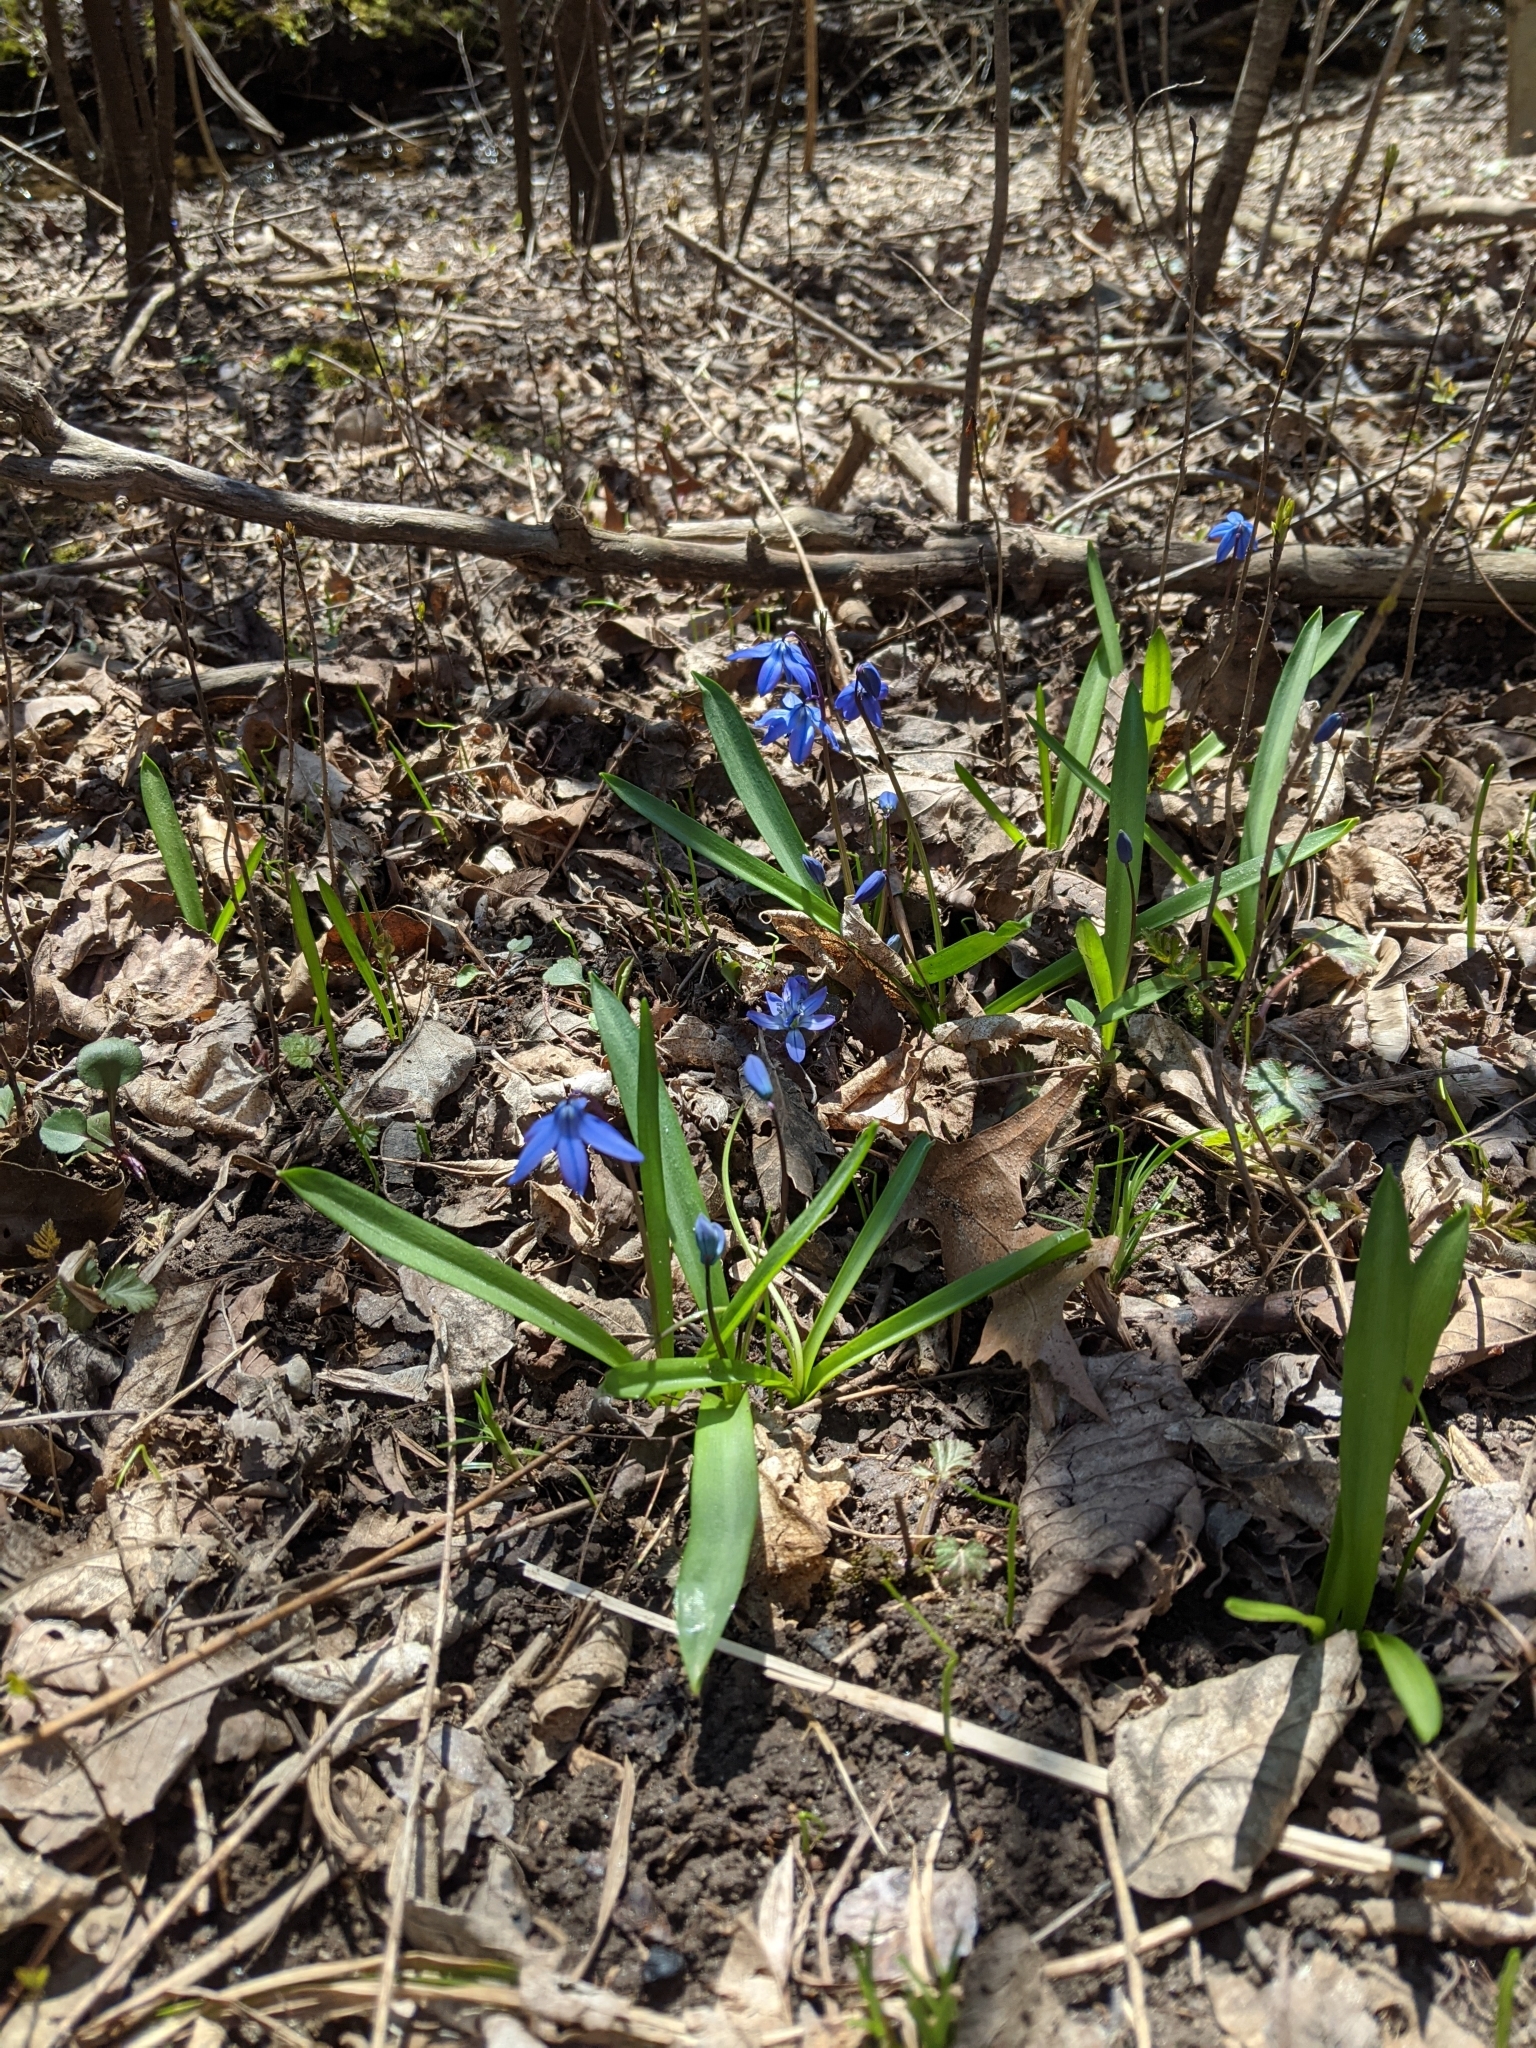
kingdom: Plantae
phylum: Tracheophyta
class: Liliopsida
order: Asparagales
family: Asparagaceae
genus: Scilla
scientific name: Scilla siberica
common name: Siberian squill
